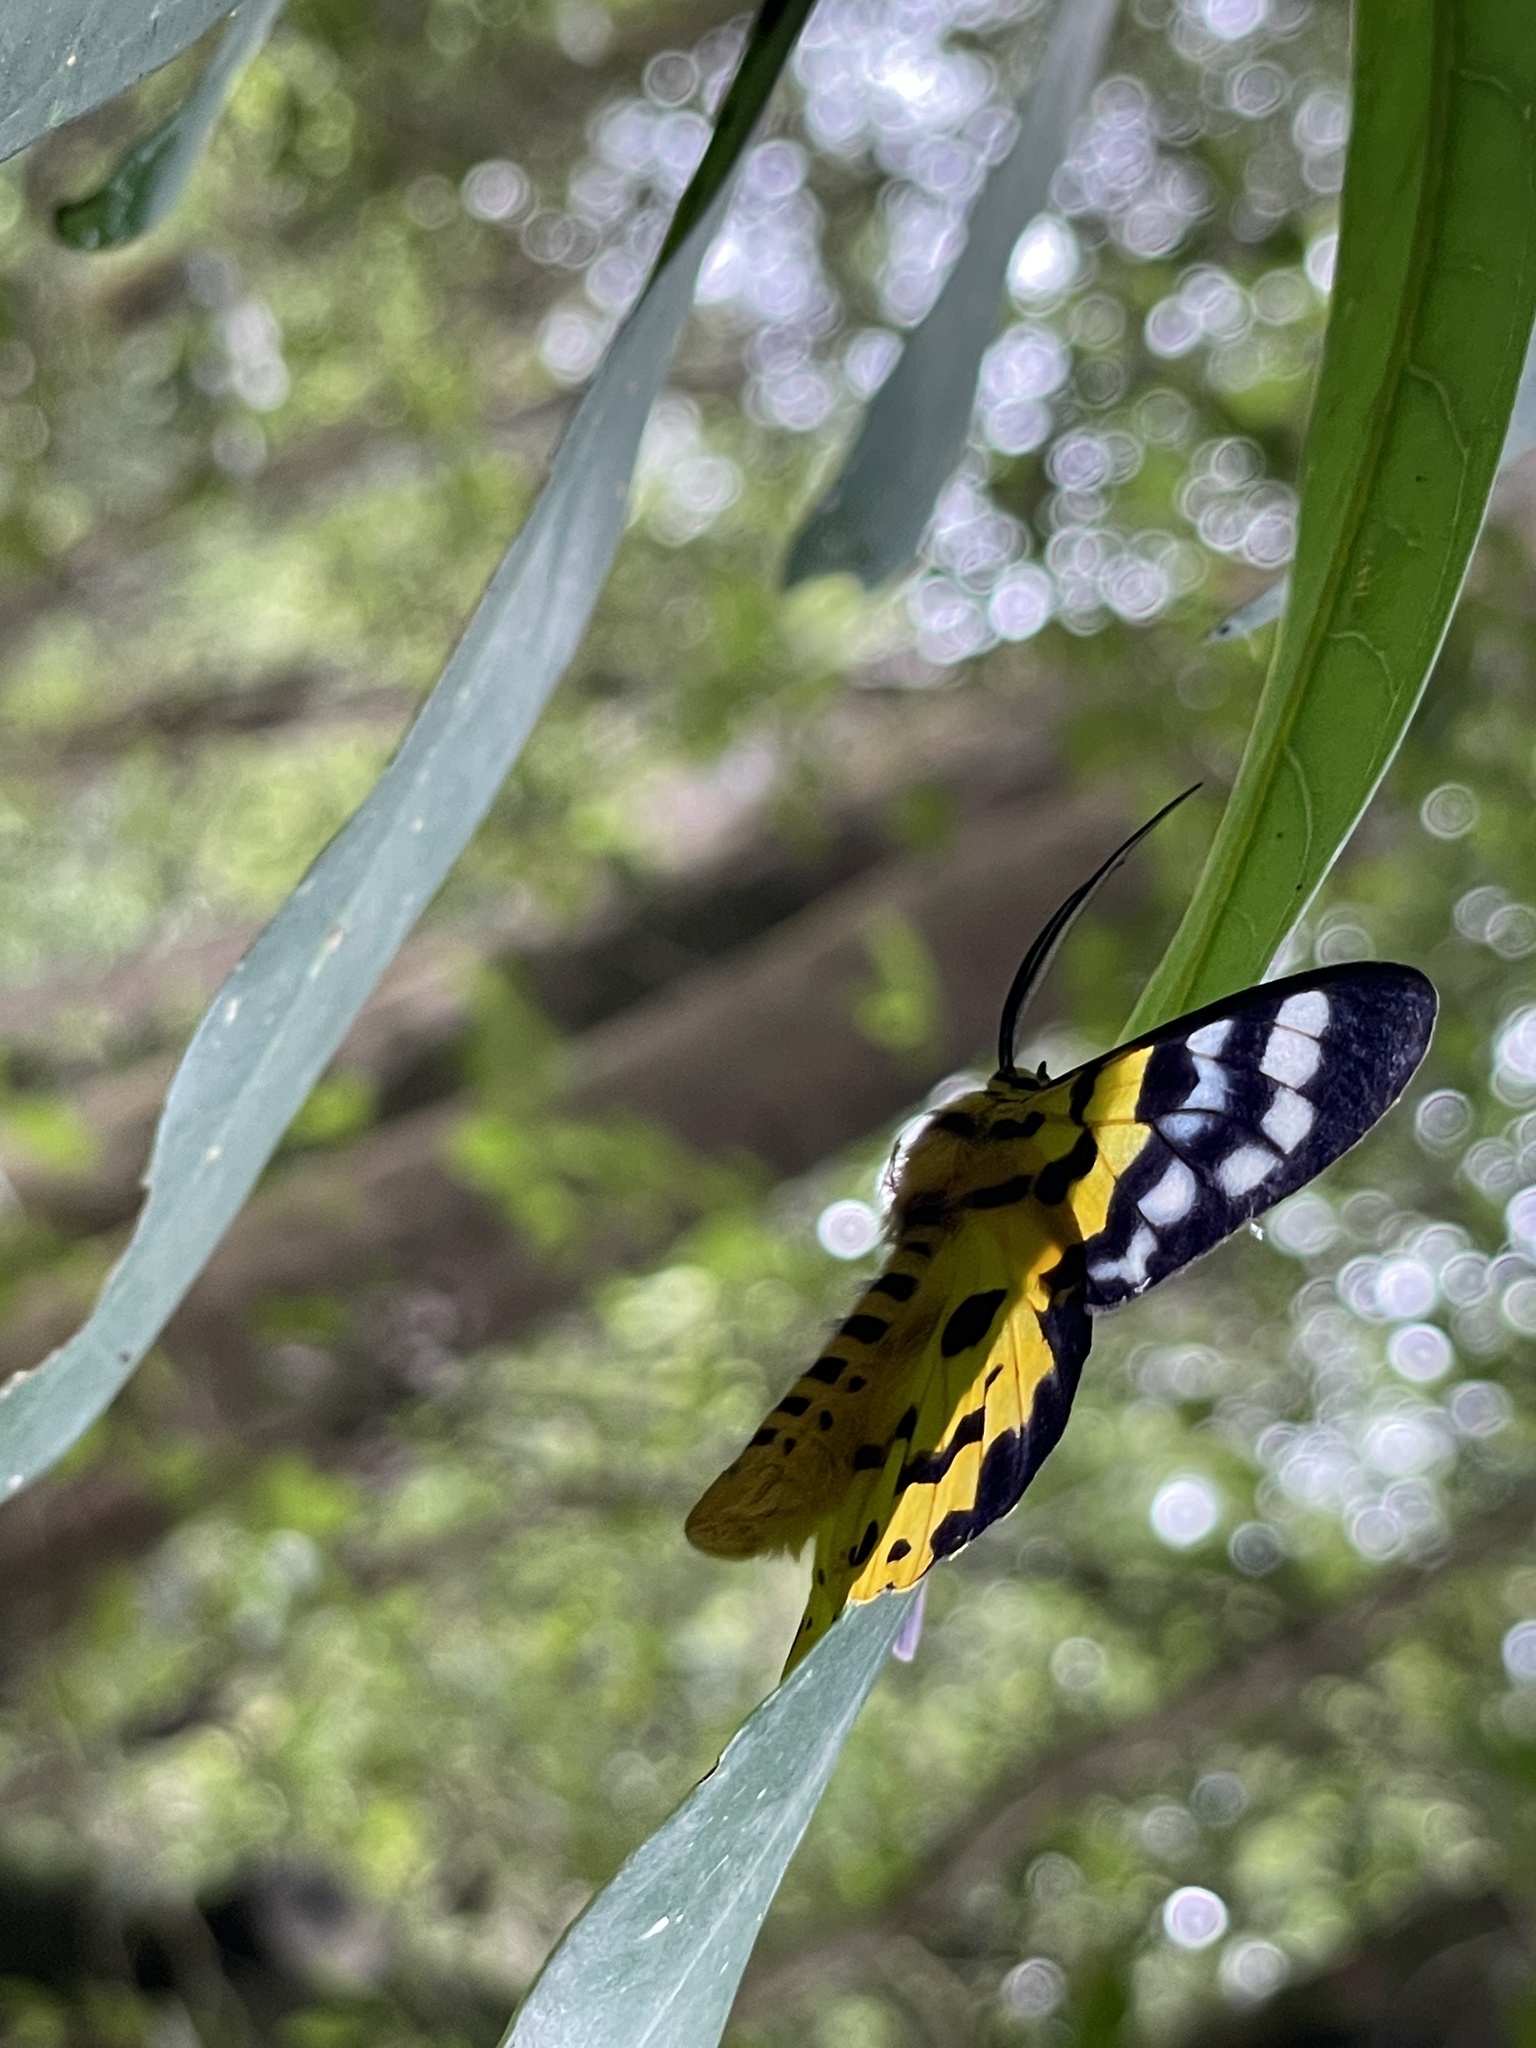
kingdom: Animalia
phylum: Arthropoda
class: Insecta
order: Lepidoptera
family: Geometridae
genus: Dysphania
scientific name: Dysphania militaris
